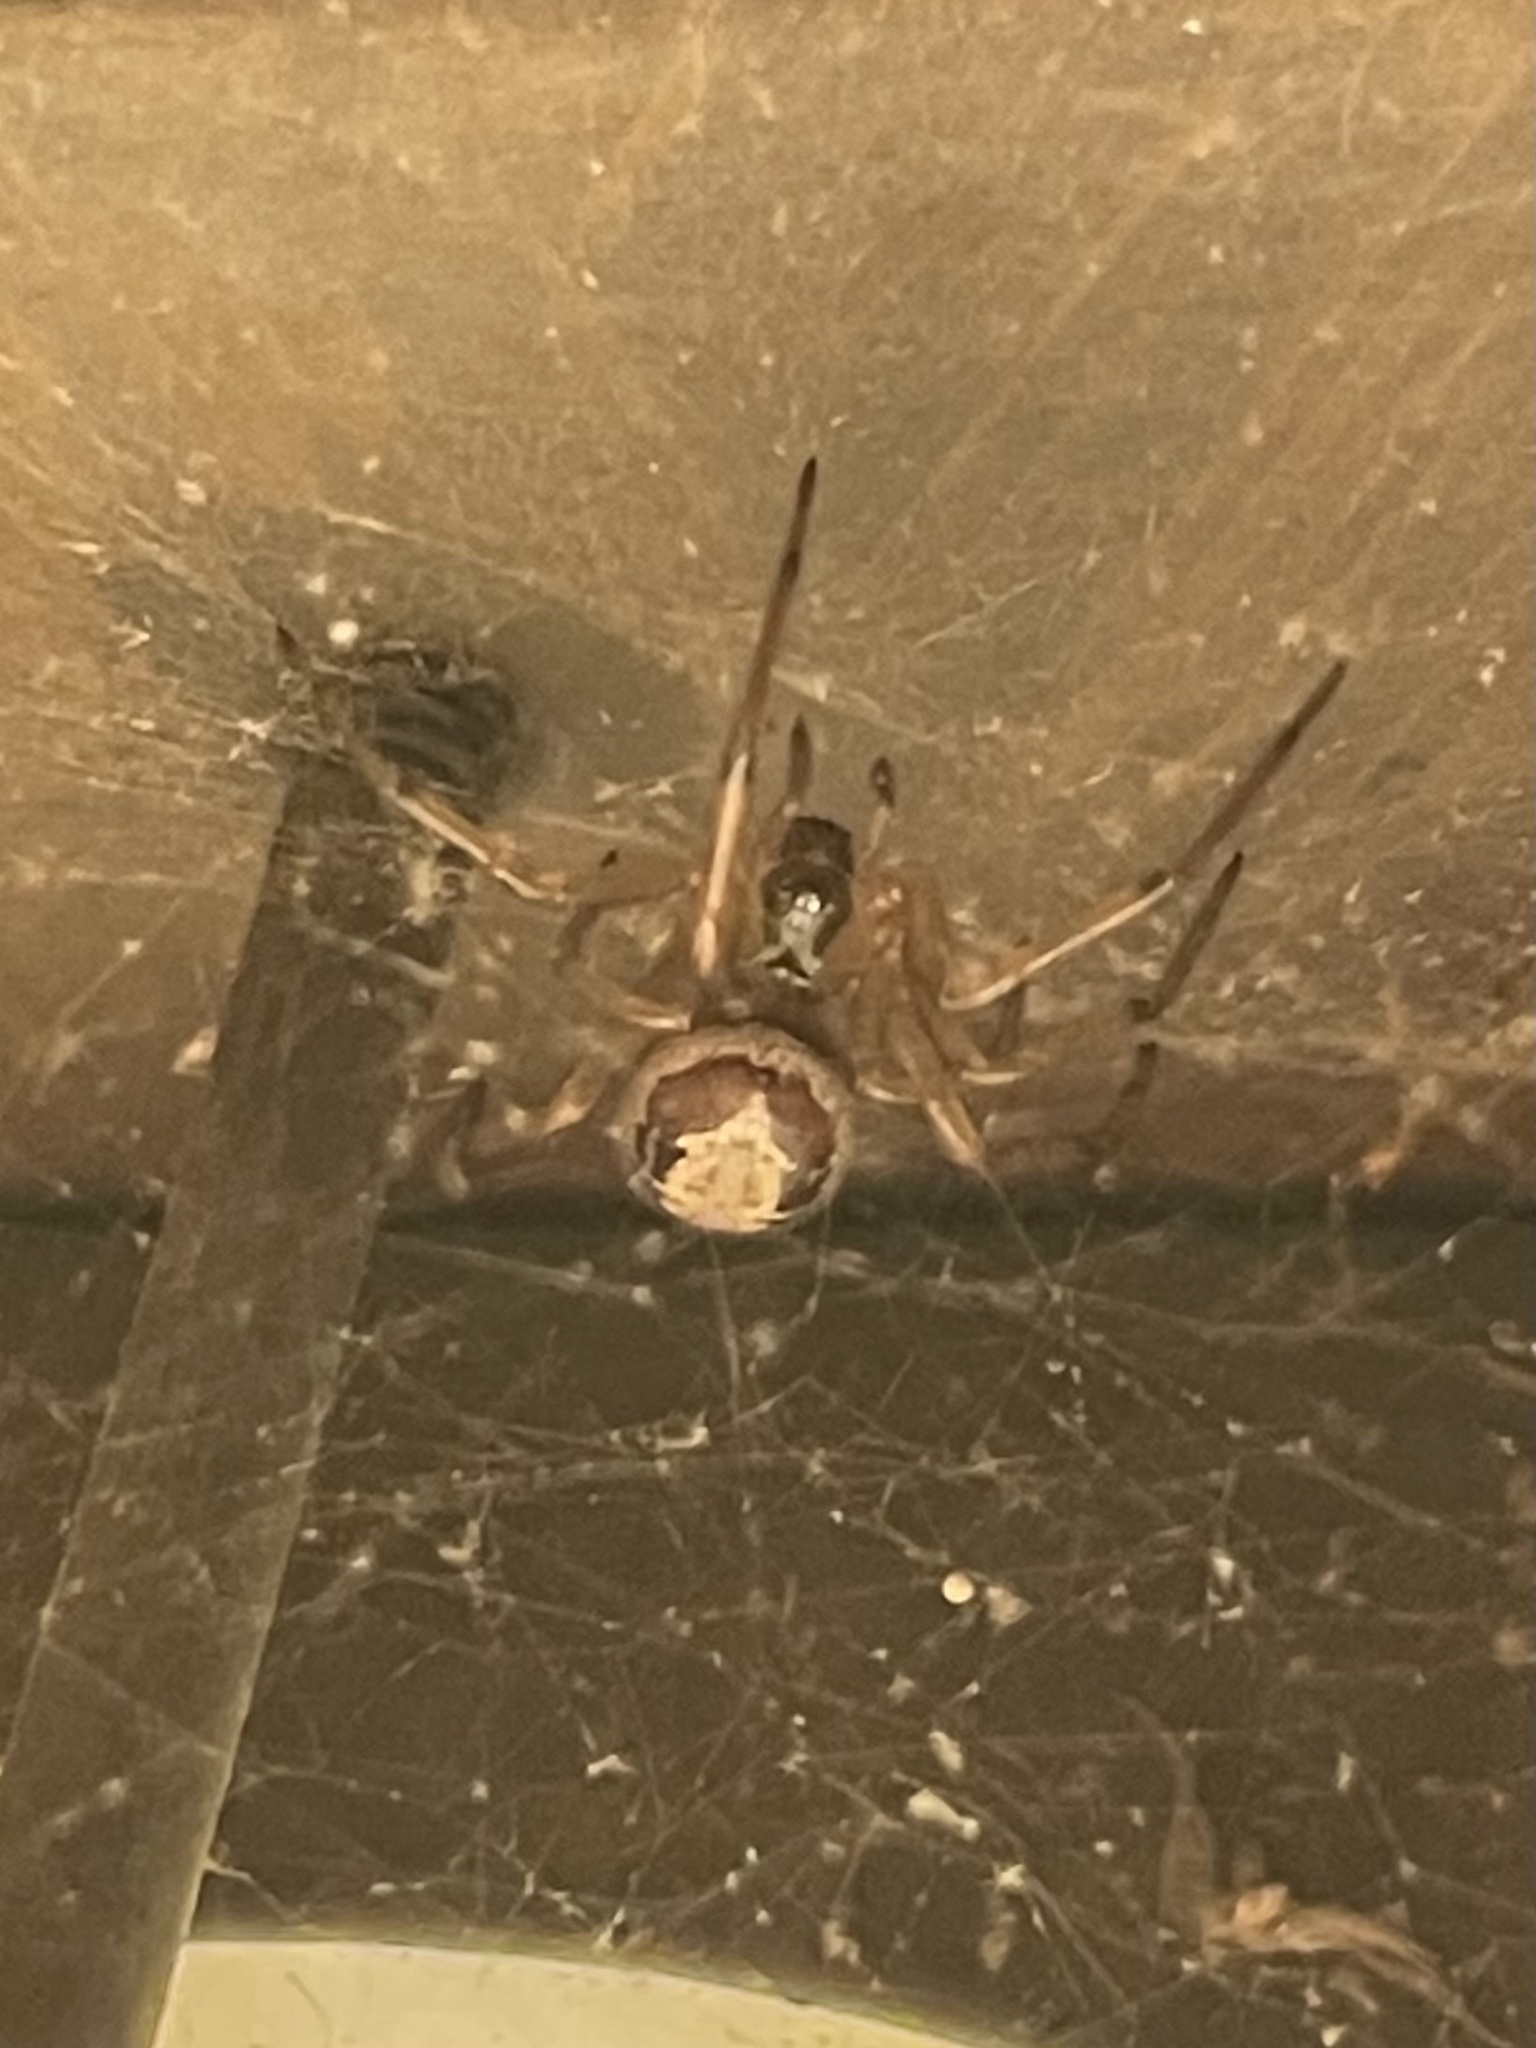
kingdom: Animalia
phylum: Arthropoda
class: Arachnida
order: Araneae
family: Theridiidae
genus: Steatoda
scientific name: Steatoda nobilis
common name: Cobweb weaver
